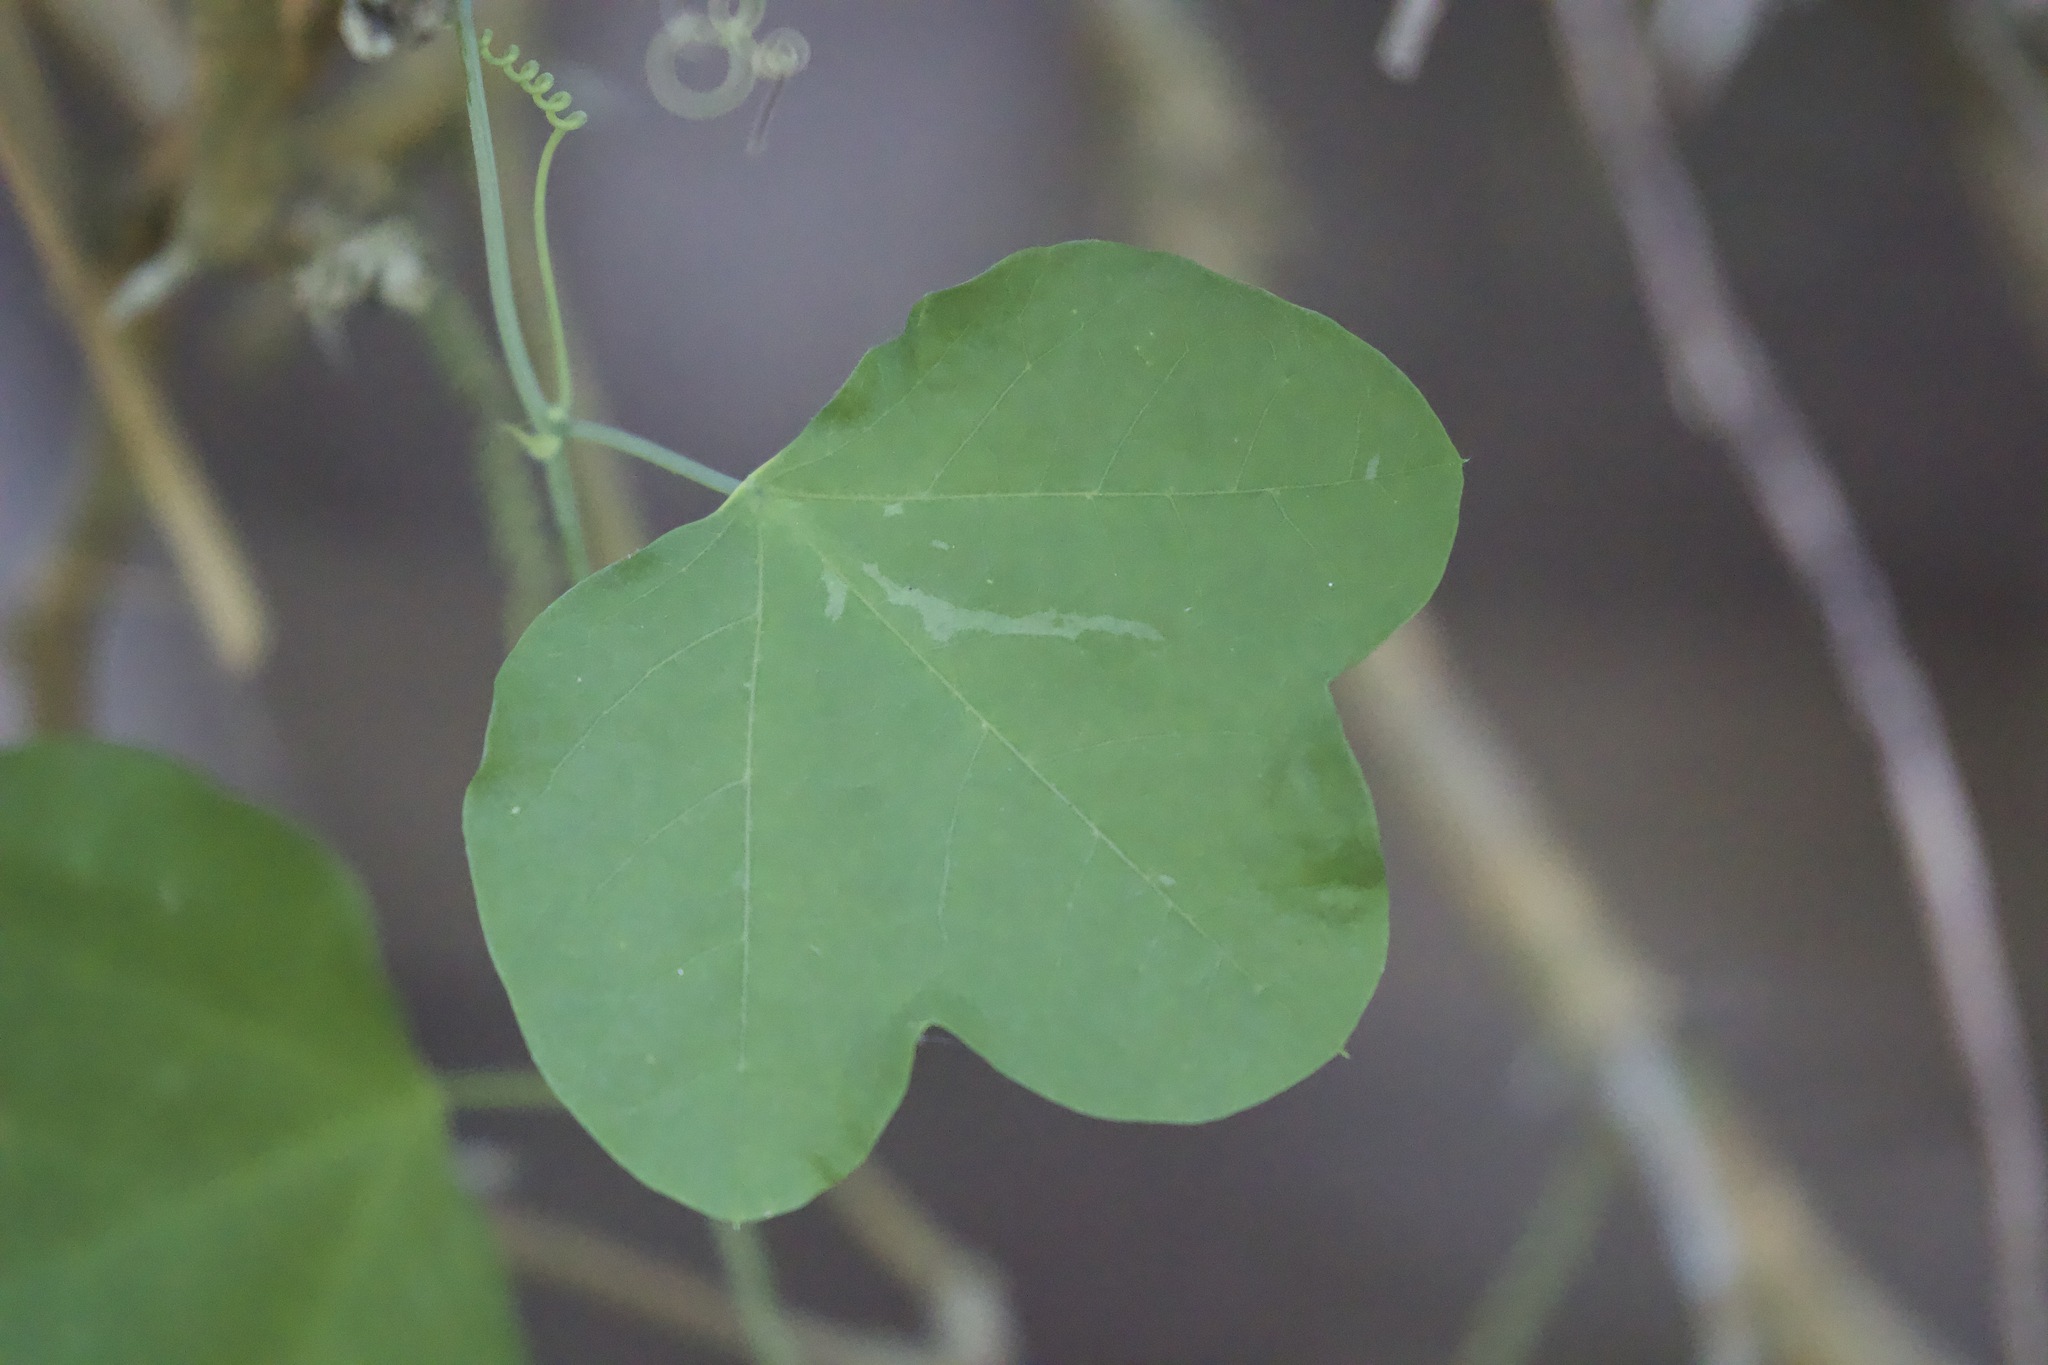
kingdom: Plantae
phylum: Tracheophyta
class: Magnoliopsida
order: Malpighiales
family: Passifloraceae
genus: Passiflora
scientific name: Passiflora filipes
